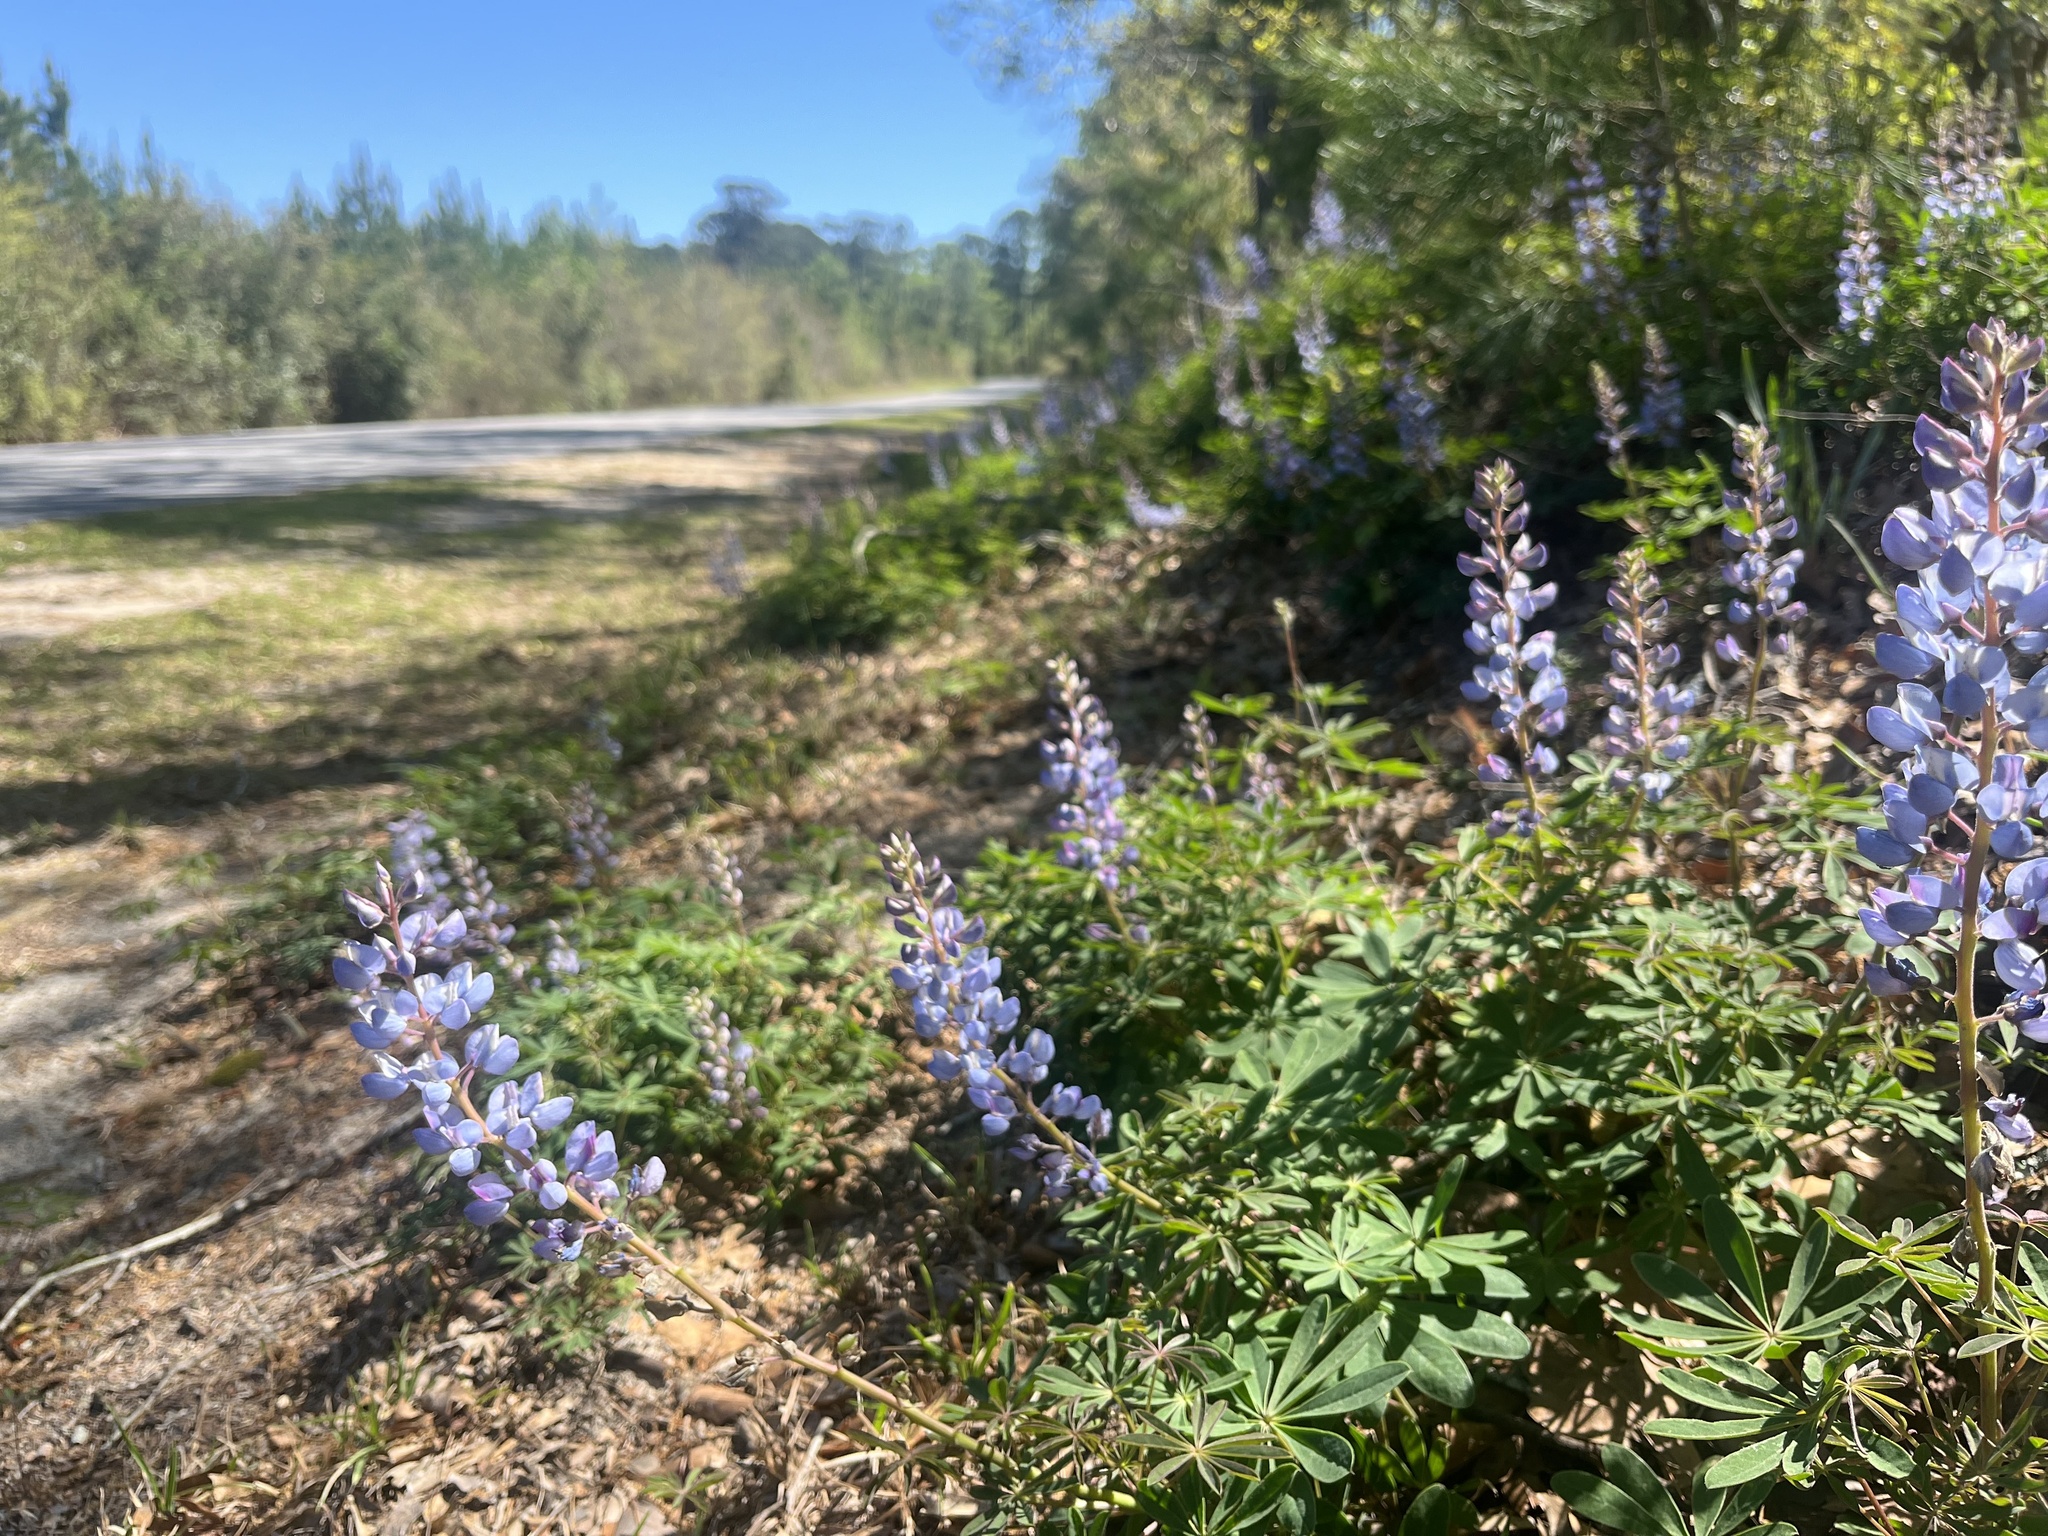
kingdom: Plantae
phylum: Tracheophyta
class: Magnoliopsida
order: Fabales
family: Fabaceae
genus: Lupinus
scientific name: Lupinus perennis
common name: Sundial lupine
